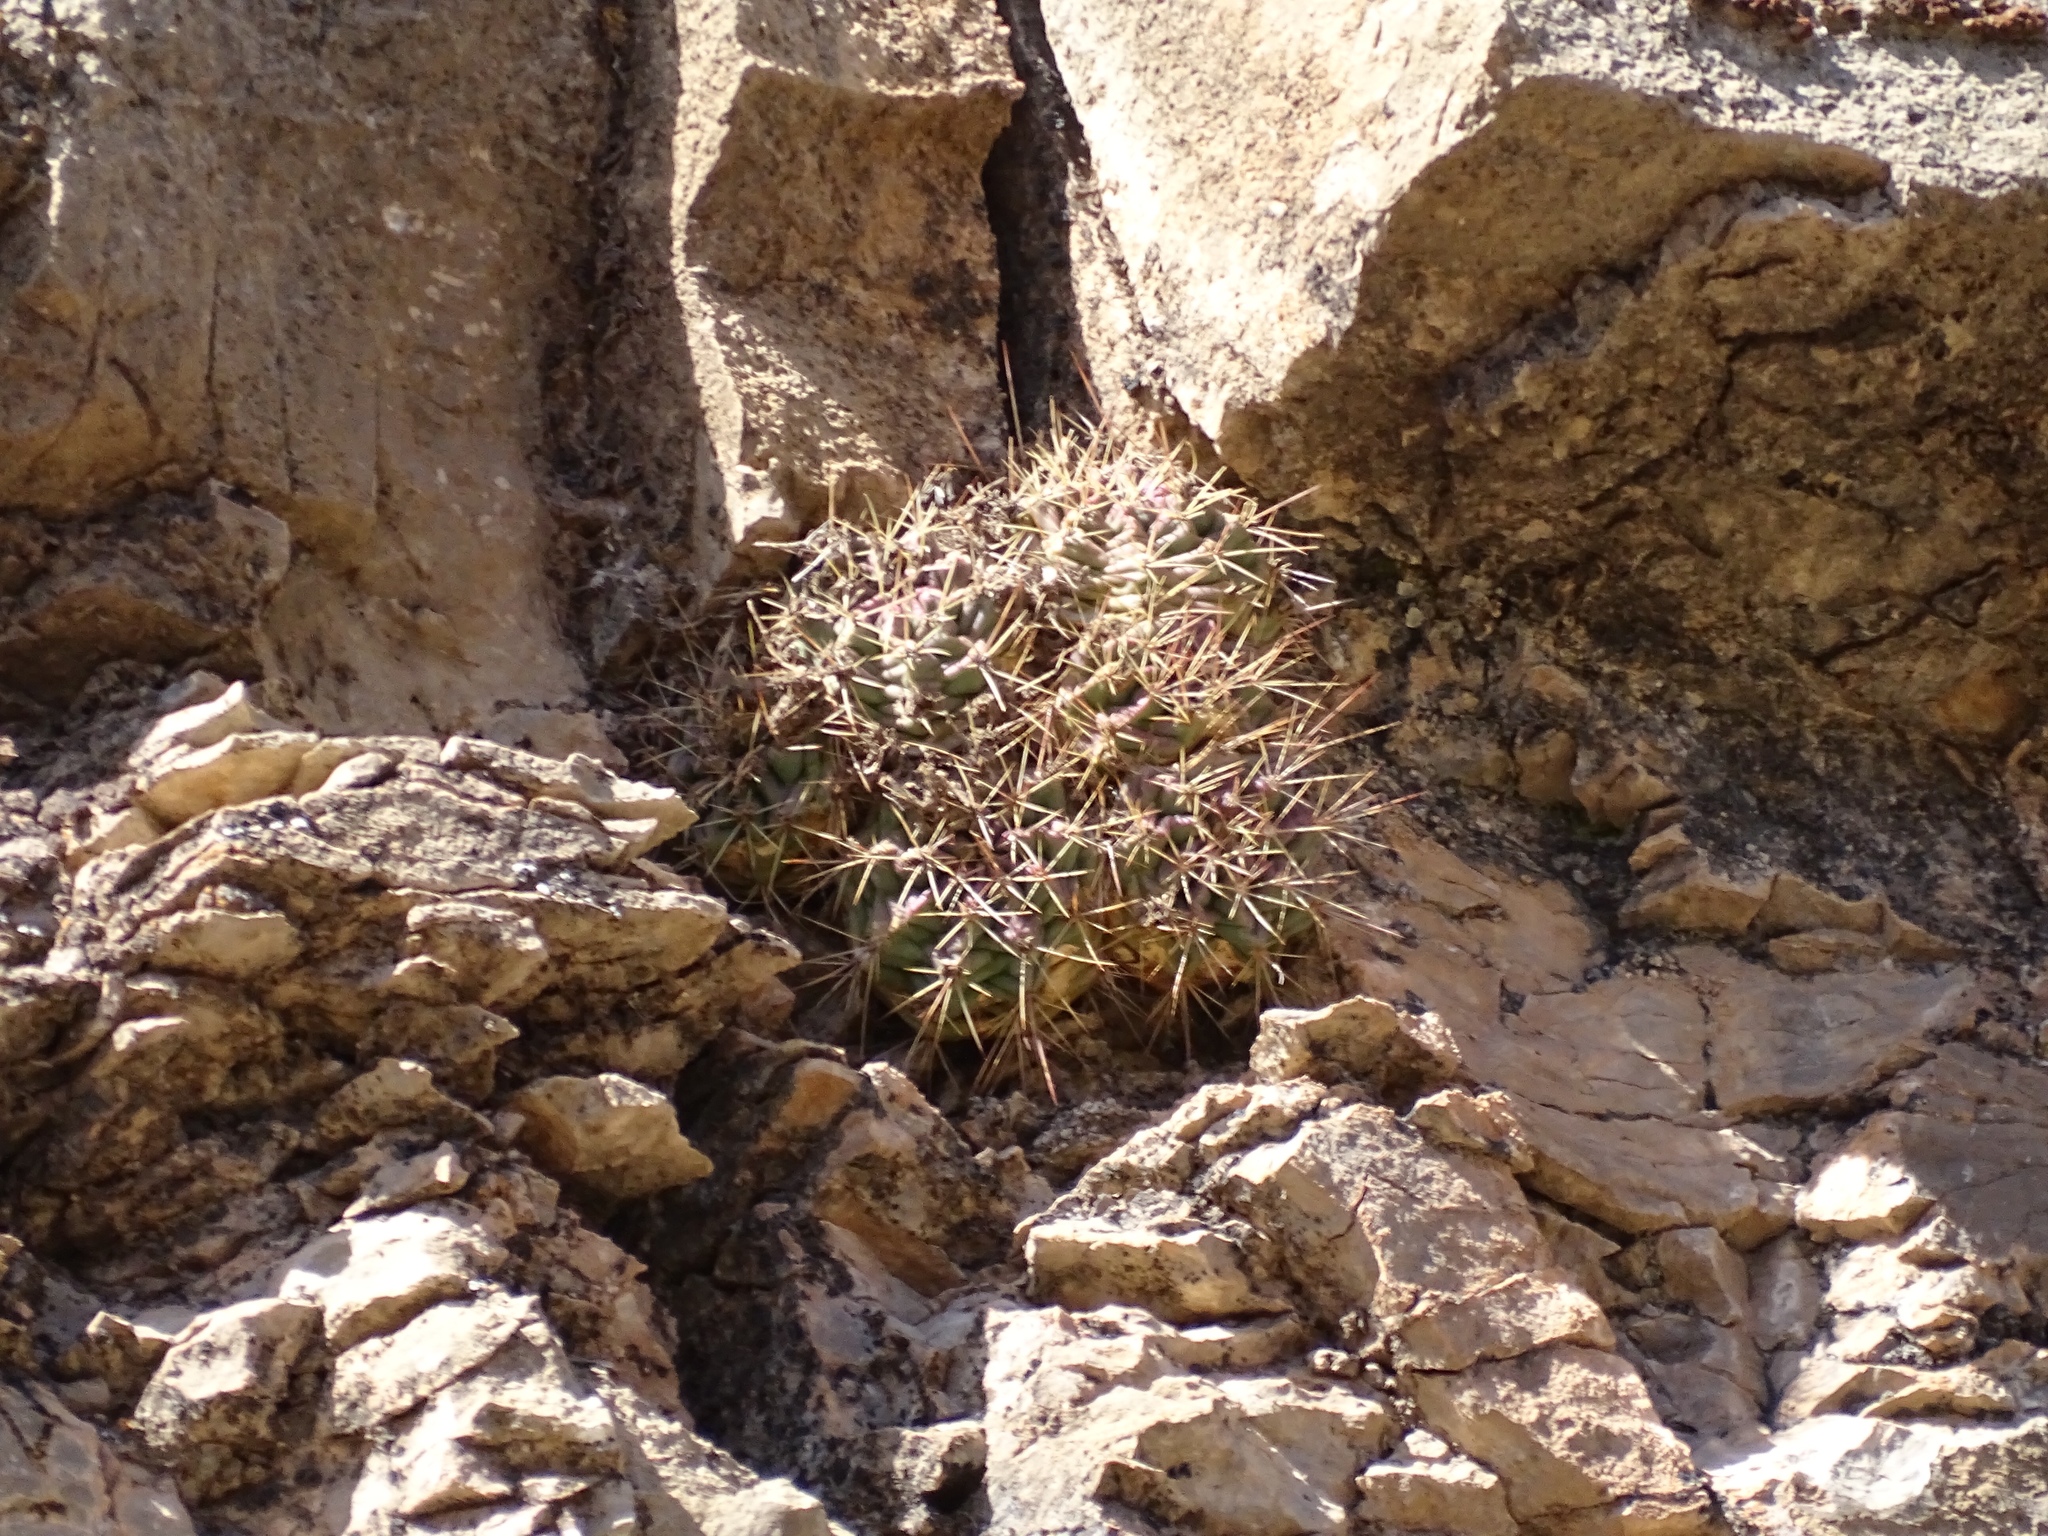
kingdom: Plantae
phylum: Tracheophyta
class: Magnoliopsida
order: Caryophyllales
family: Cactaceae
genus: Echinocereus
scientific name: Echinocereus coccineus
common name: Scarlet hedgehog cactus
